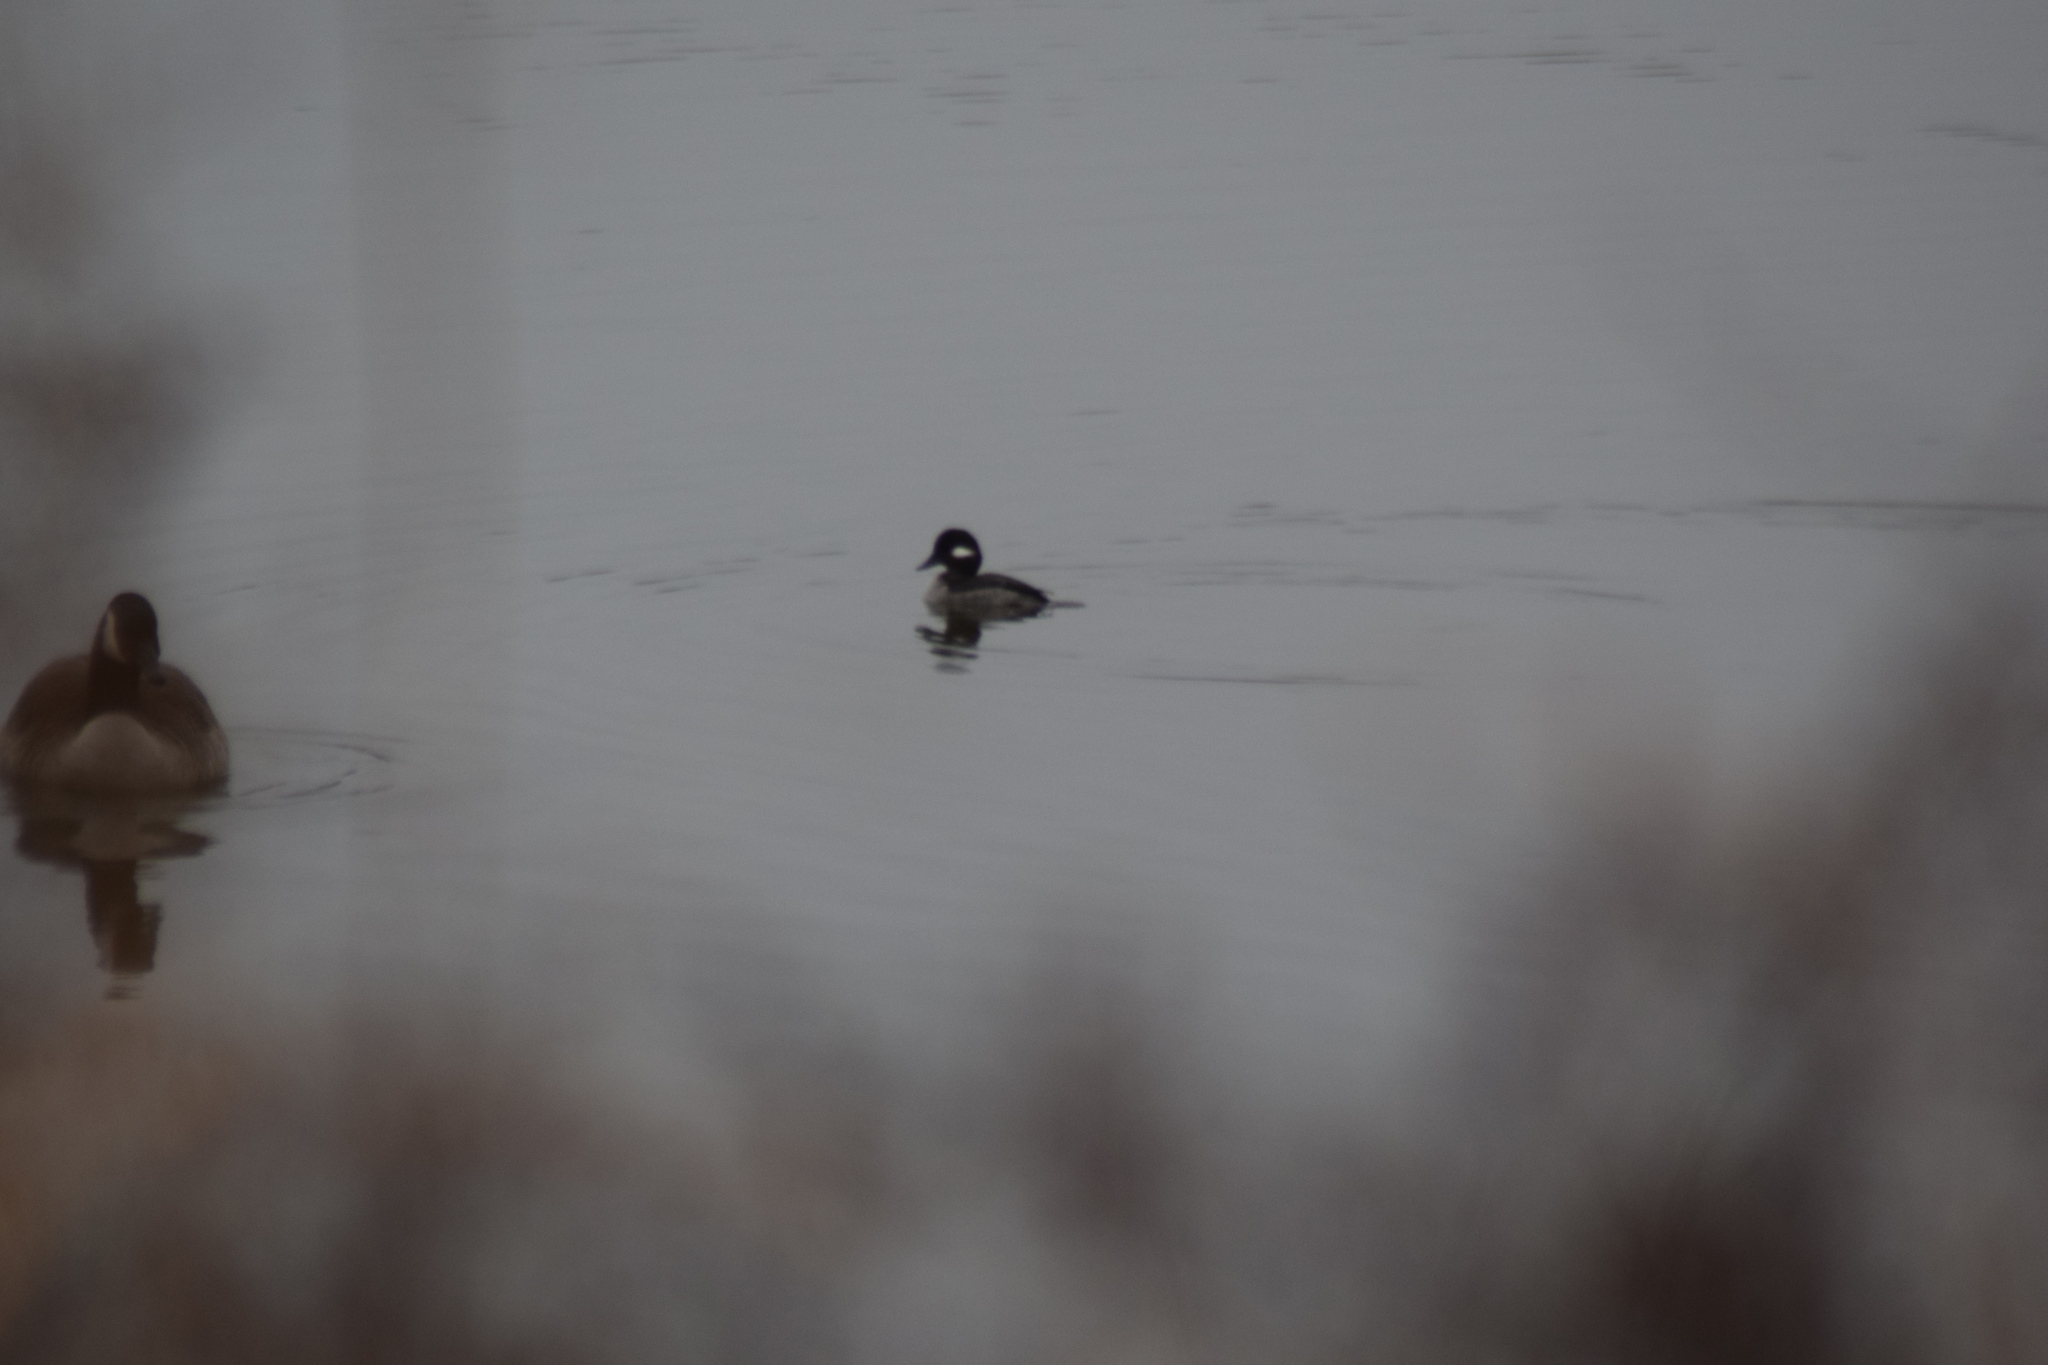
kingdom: Animalia
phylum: Chordata
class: Aves
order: Anseriformes
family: Anatidae
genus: Bucephala
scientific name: Bucephala albeola
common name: Bufflehead
